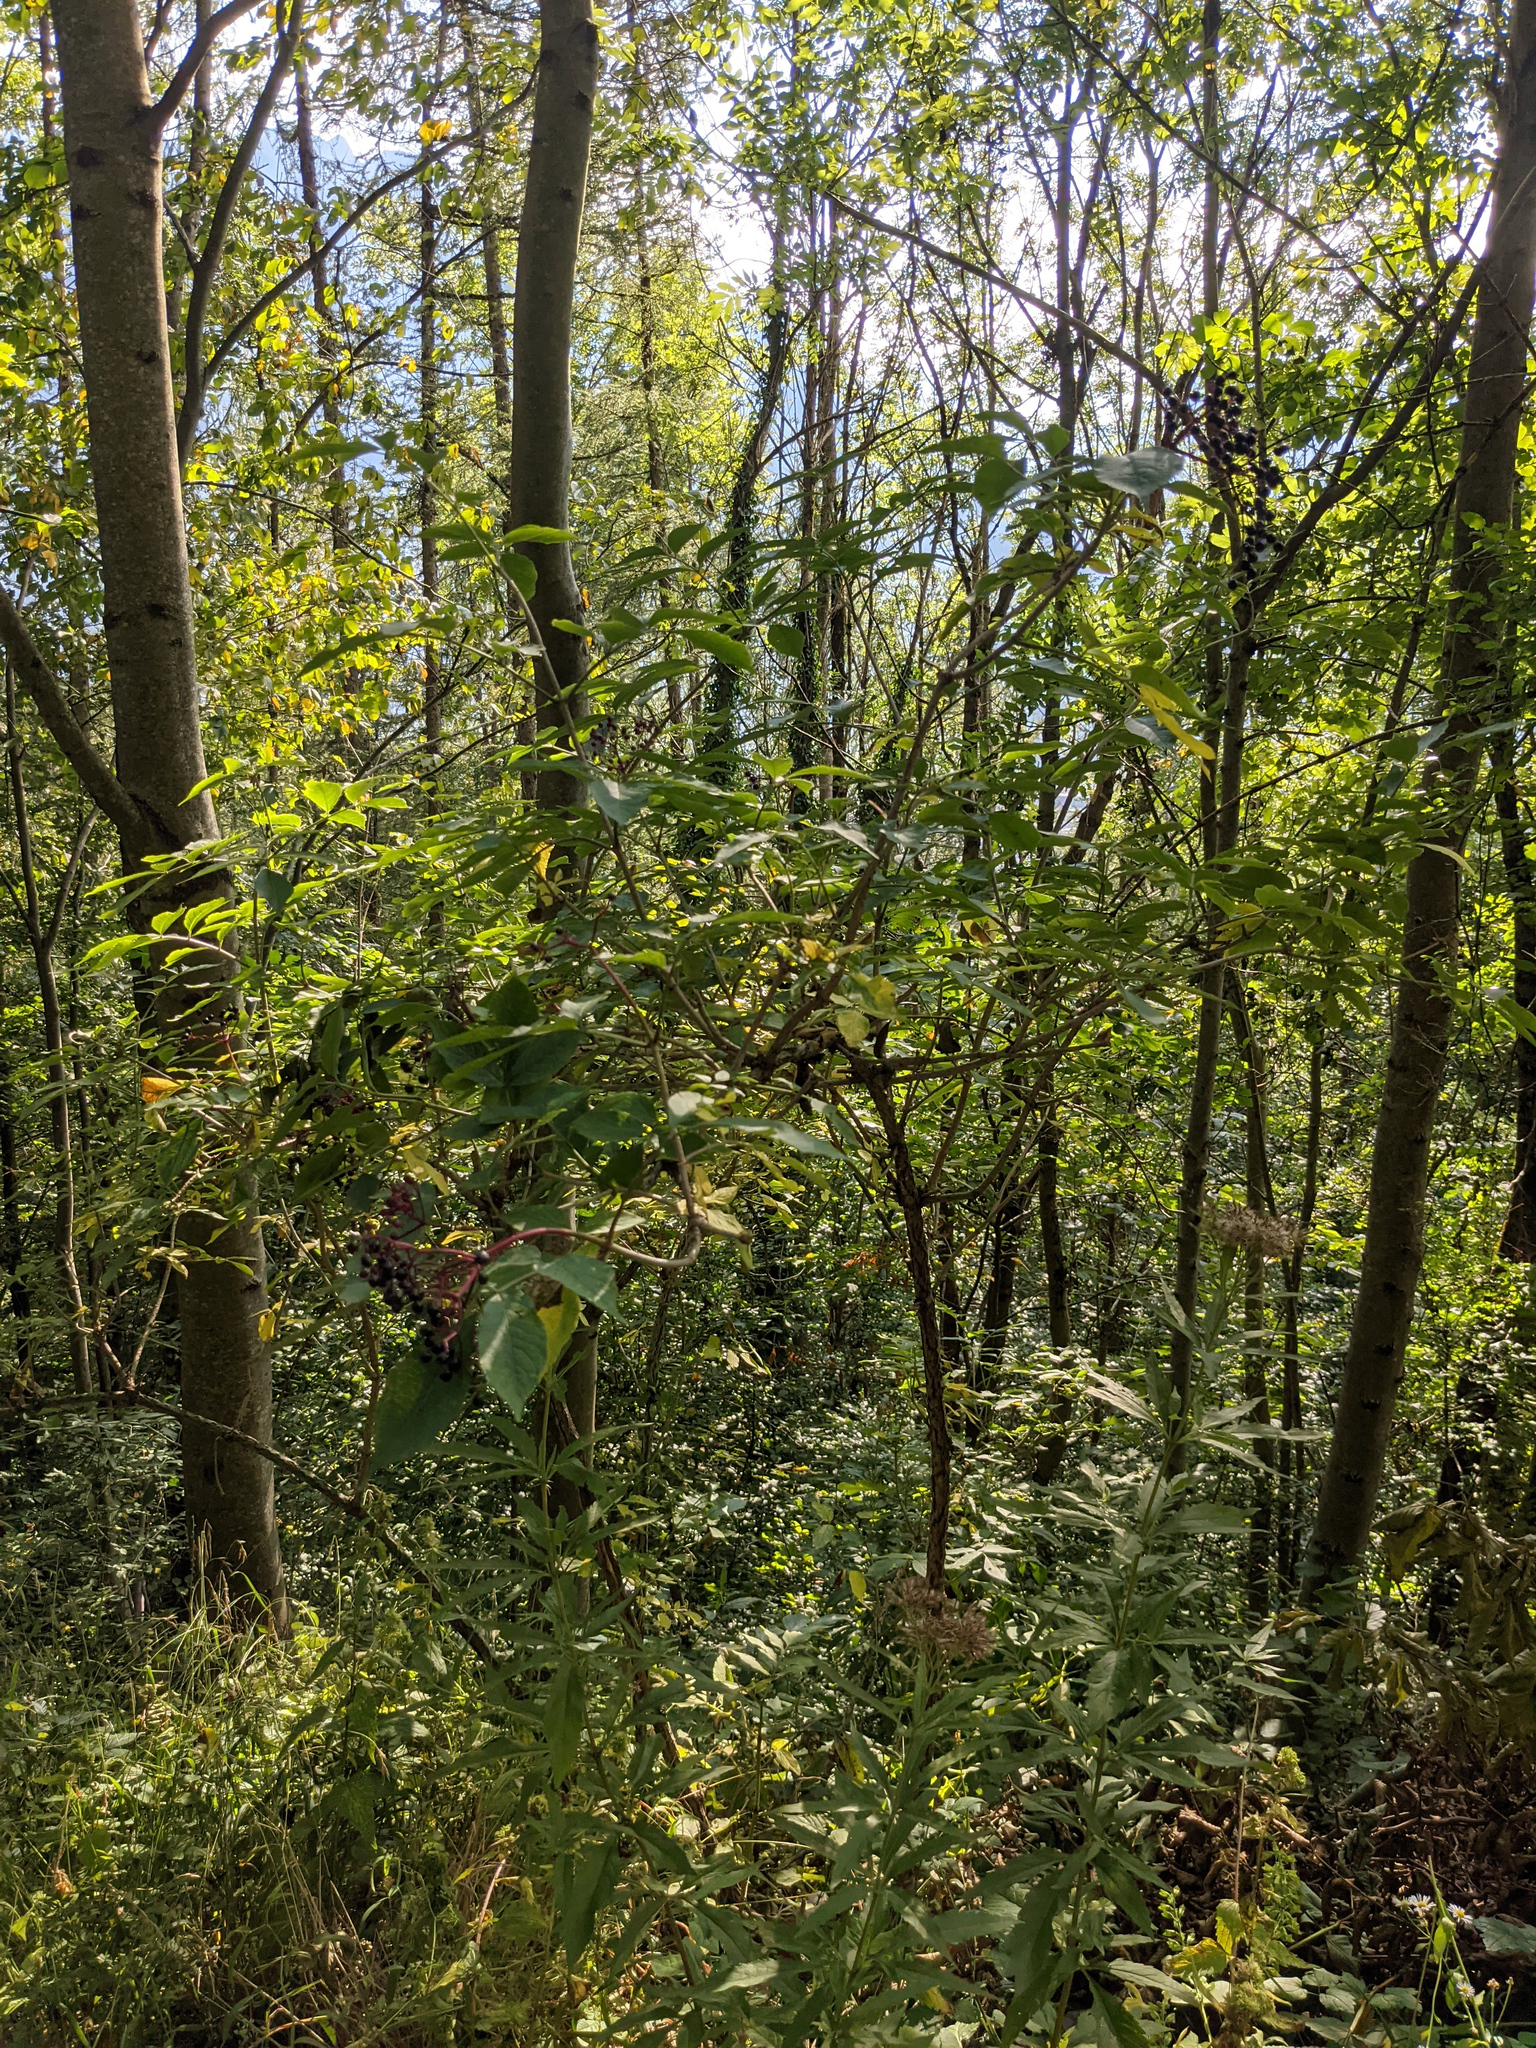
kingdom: Plantae
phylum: Tracheophyta
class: Magnoliopsida
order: Dipsacales
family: Viburnaceae
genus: Sambucus
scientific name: Sambucus nigra
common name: Elder
